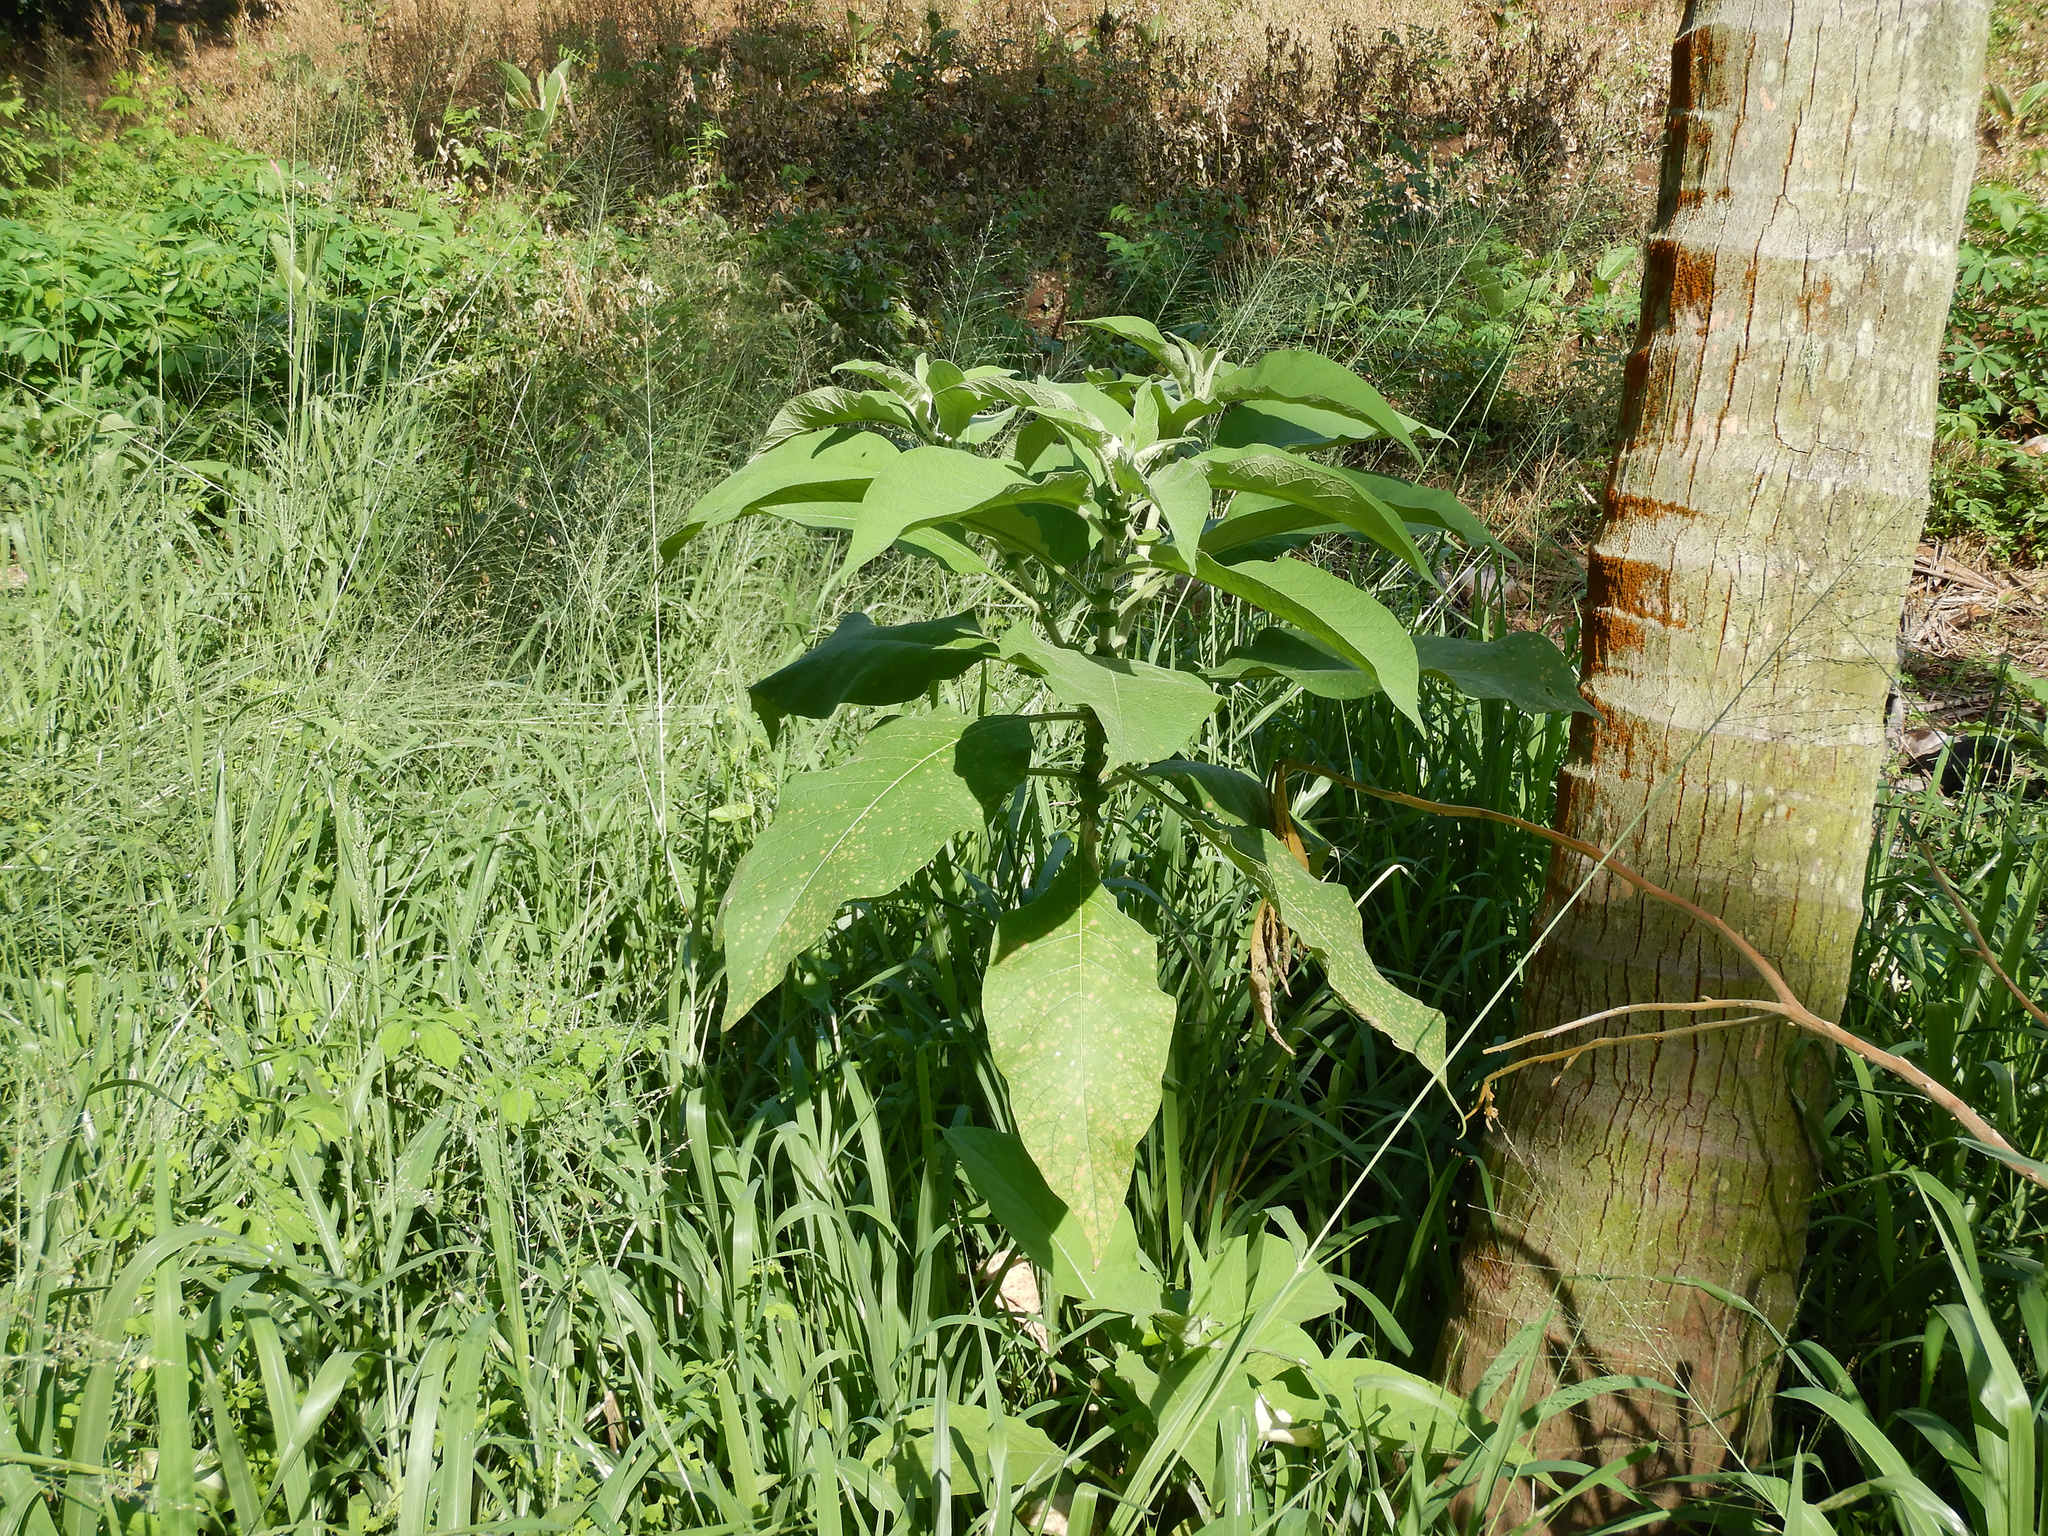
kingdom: Plantae
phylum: Tracheophyta
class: Magnoliopsida
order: Solanales
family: Solanaceae
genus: Solanum
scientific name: Solanum mauritianum
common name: Earleaf nightshade
